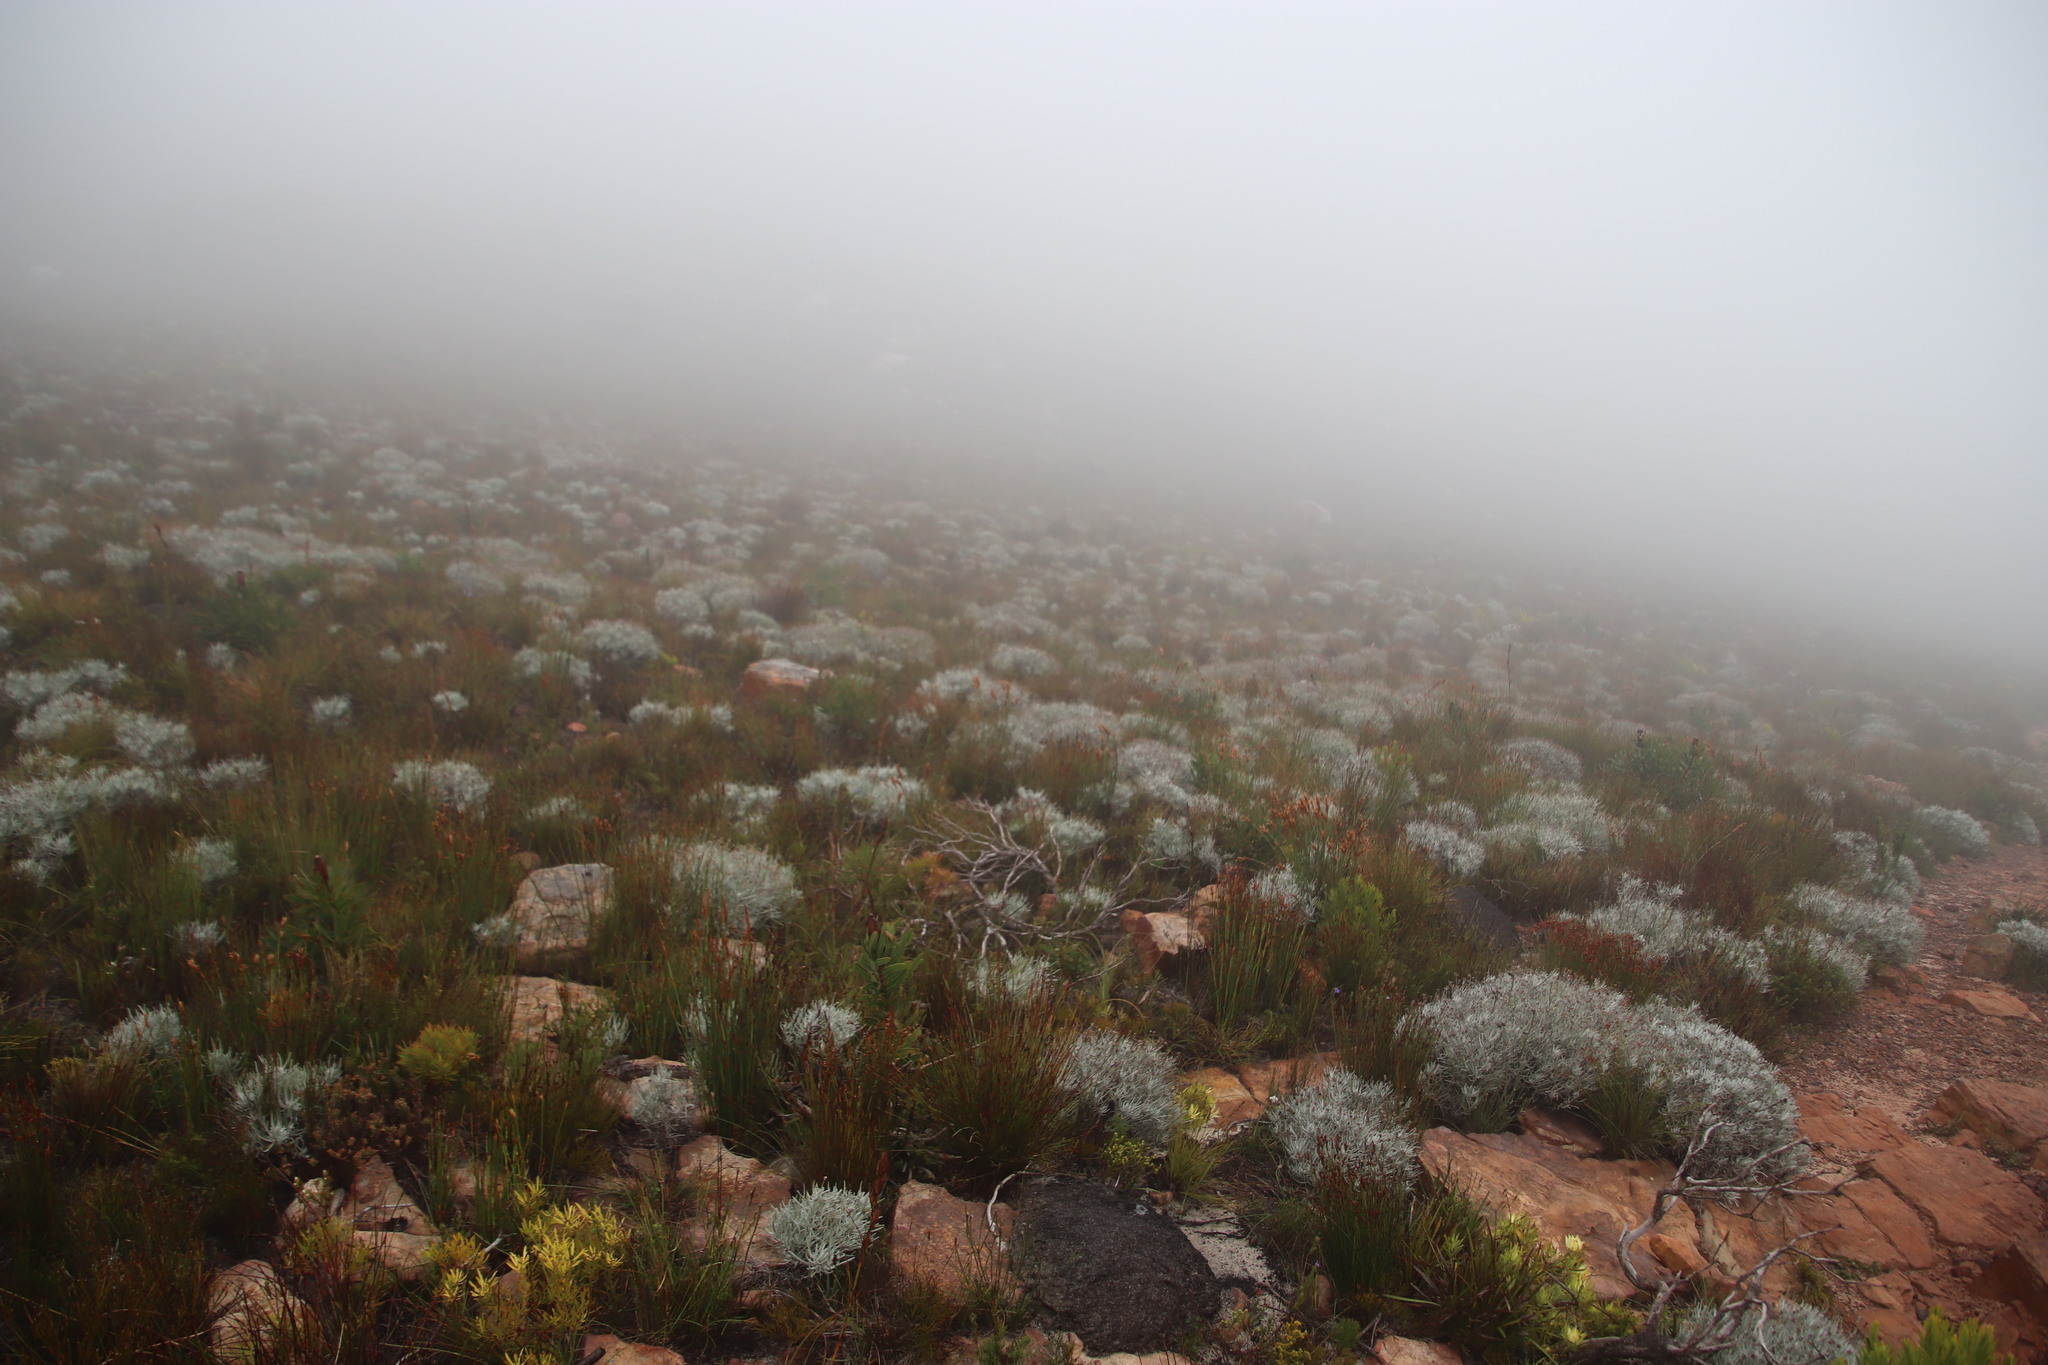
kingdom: Plantae
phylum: Tracheophyta
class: Magnoliopsida
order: Asterales
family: Asteraceae
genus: Syncarpha
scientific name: Syncarpha gnaphaloides
